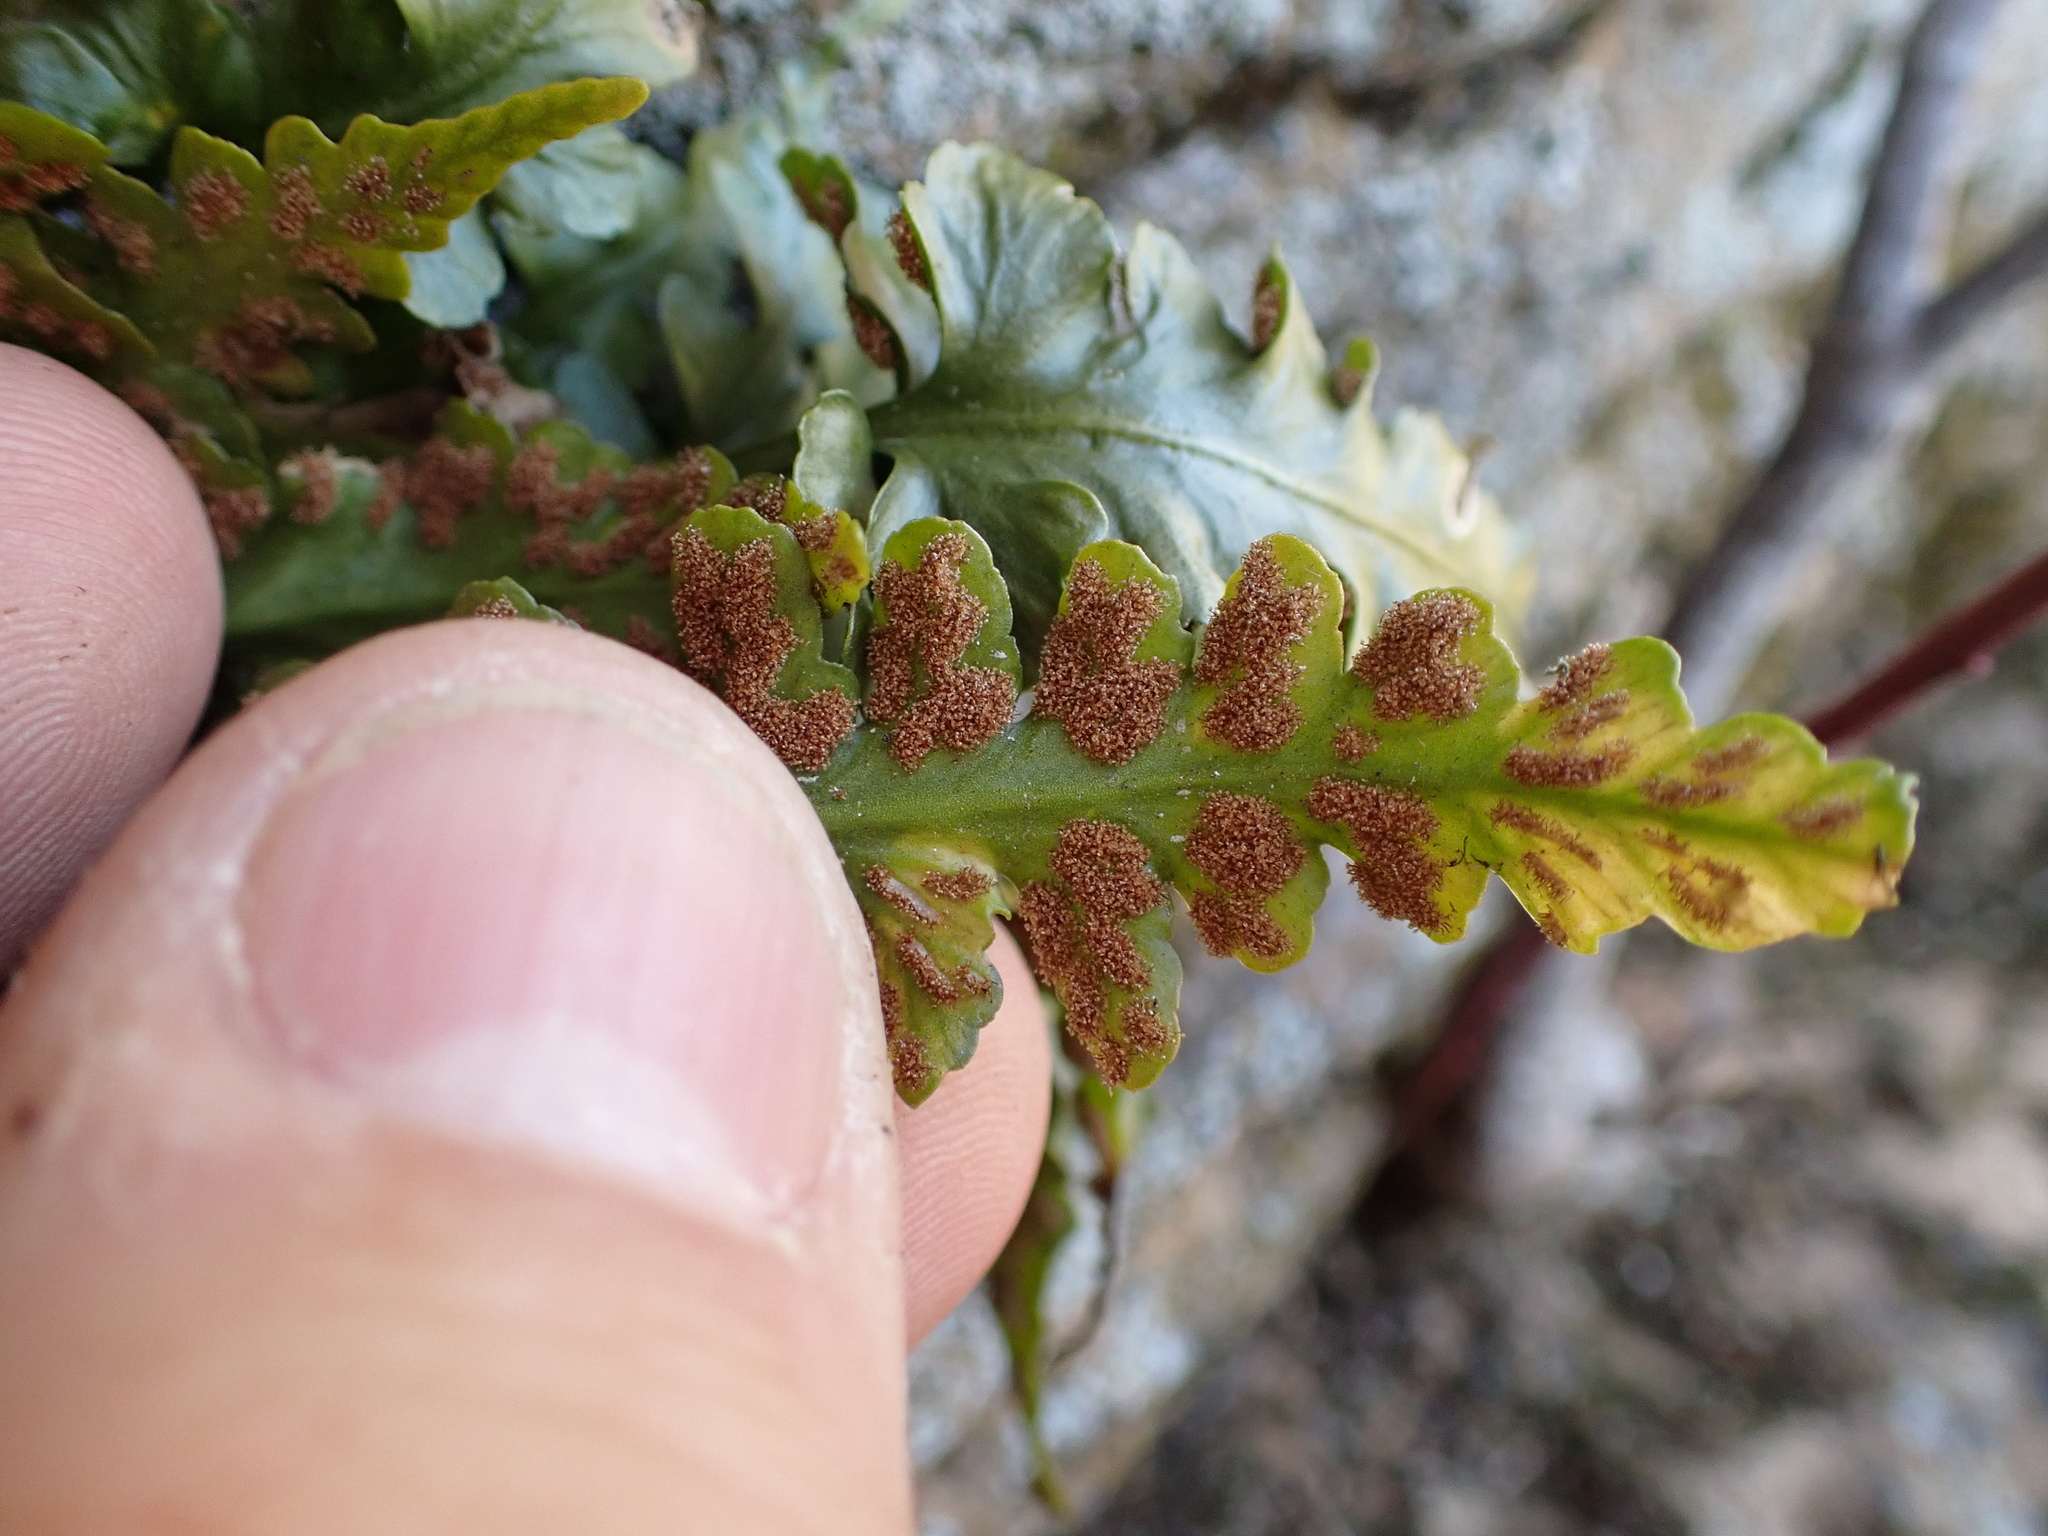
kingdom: Plantae
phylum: Tracheophyta
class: Polypodiopsida
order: Polypodiales
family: Aspleniaceae
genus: Asplenium
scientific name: Asplenium pinnatifidum
